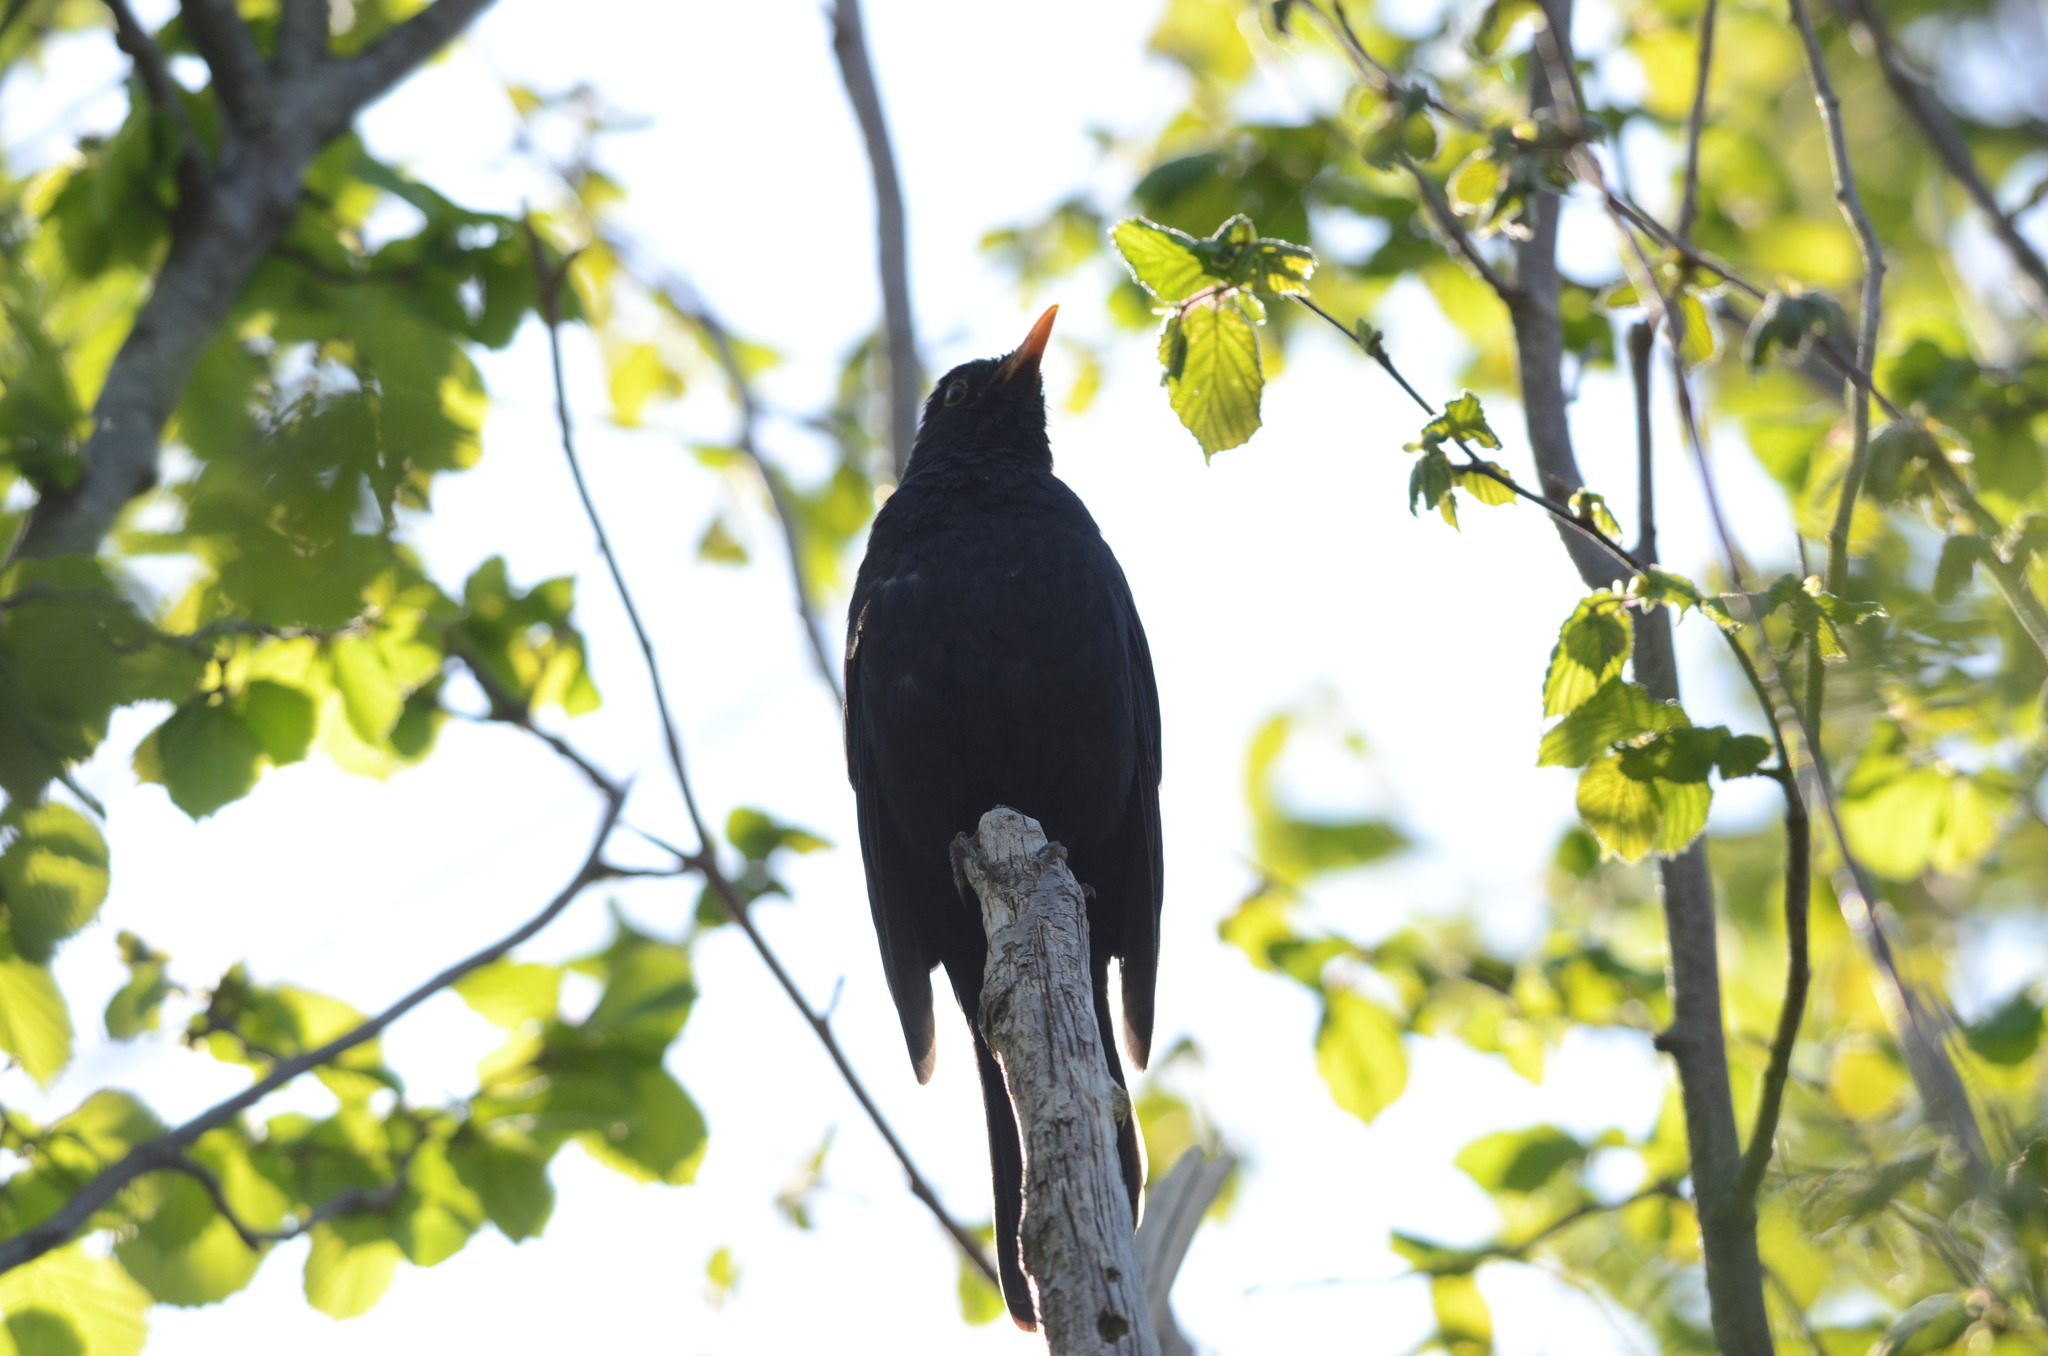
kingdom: Animalia
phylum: Chordata
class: Aves
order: Passeriformes
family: Turdidae
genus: Turdus
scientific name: Turdus merula
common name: Common blackbird
